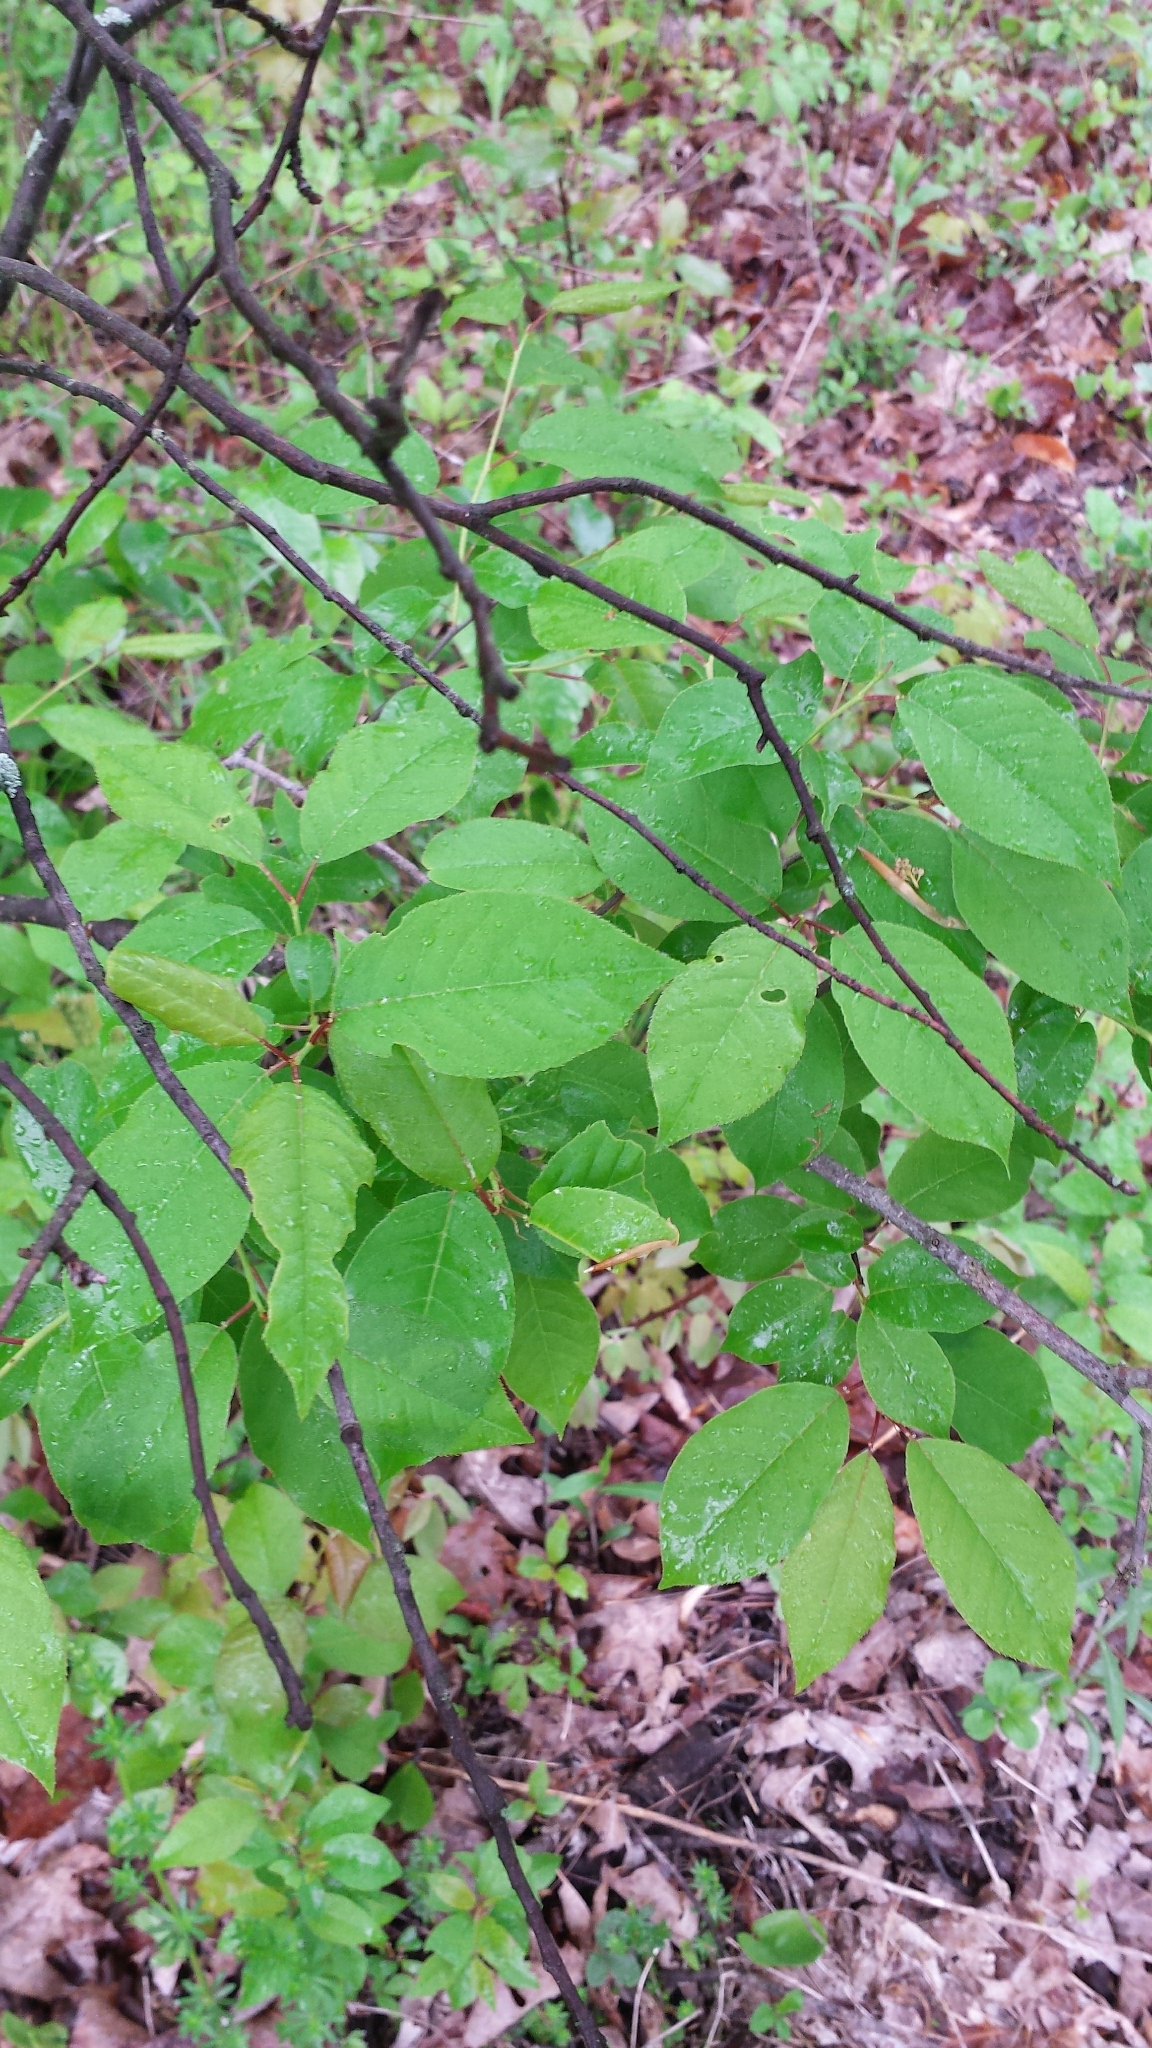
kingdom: Plantae
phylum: Tracheophyta
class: Magnoliopsida
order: Rosales
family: Rosaceae
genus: Prunus
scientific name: Prunus virginiana
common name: Chokecherry
